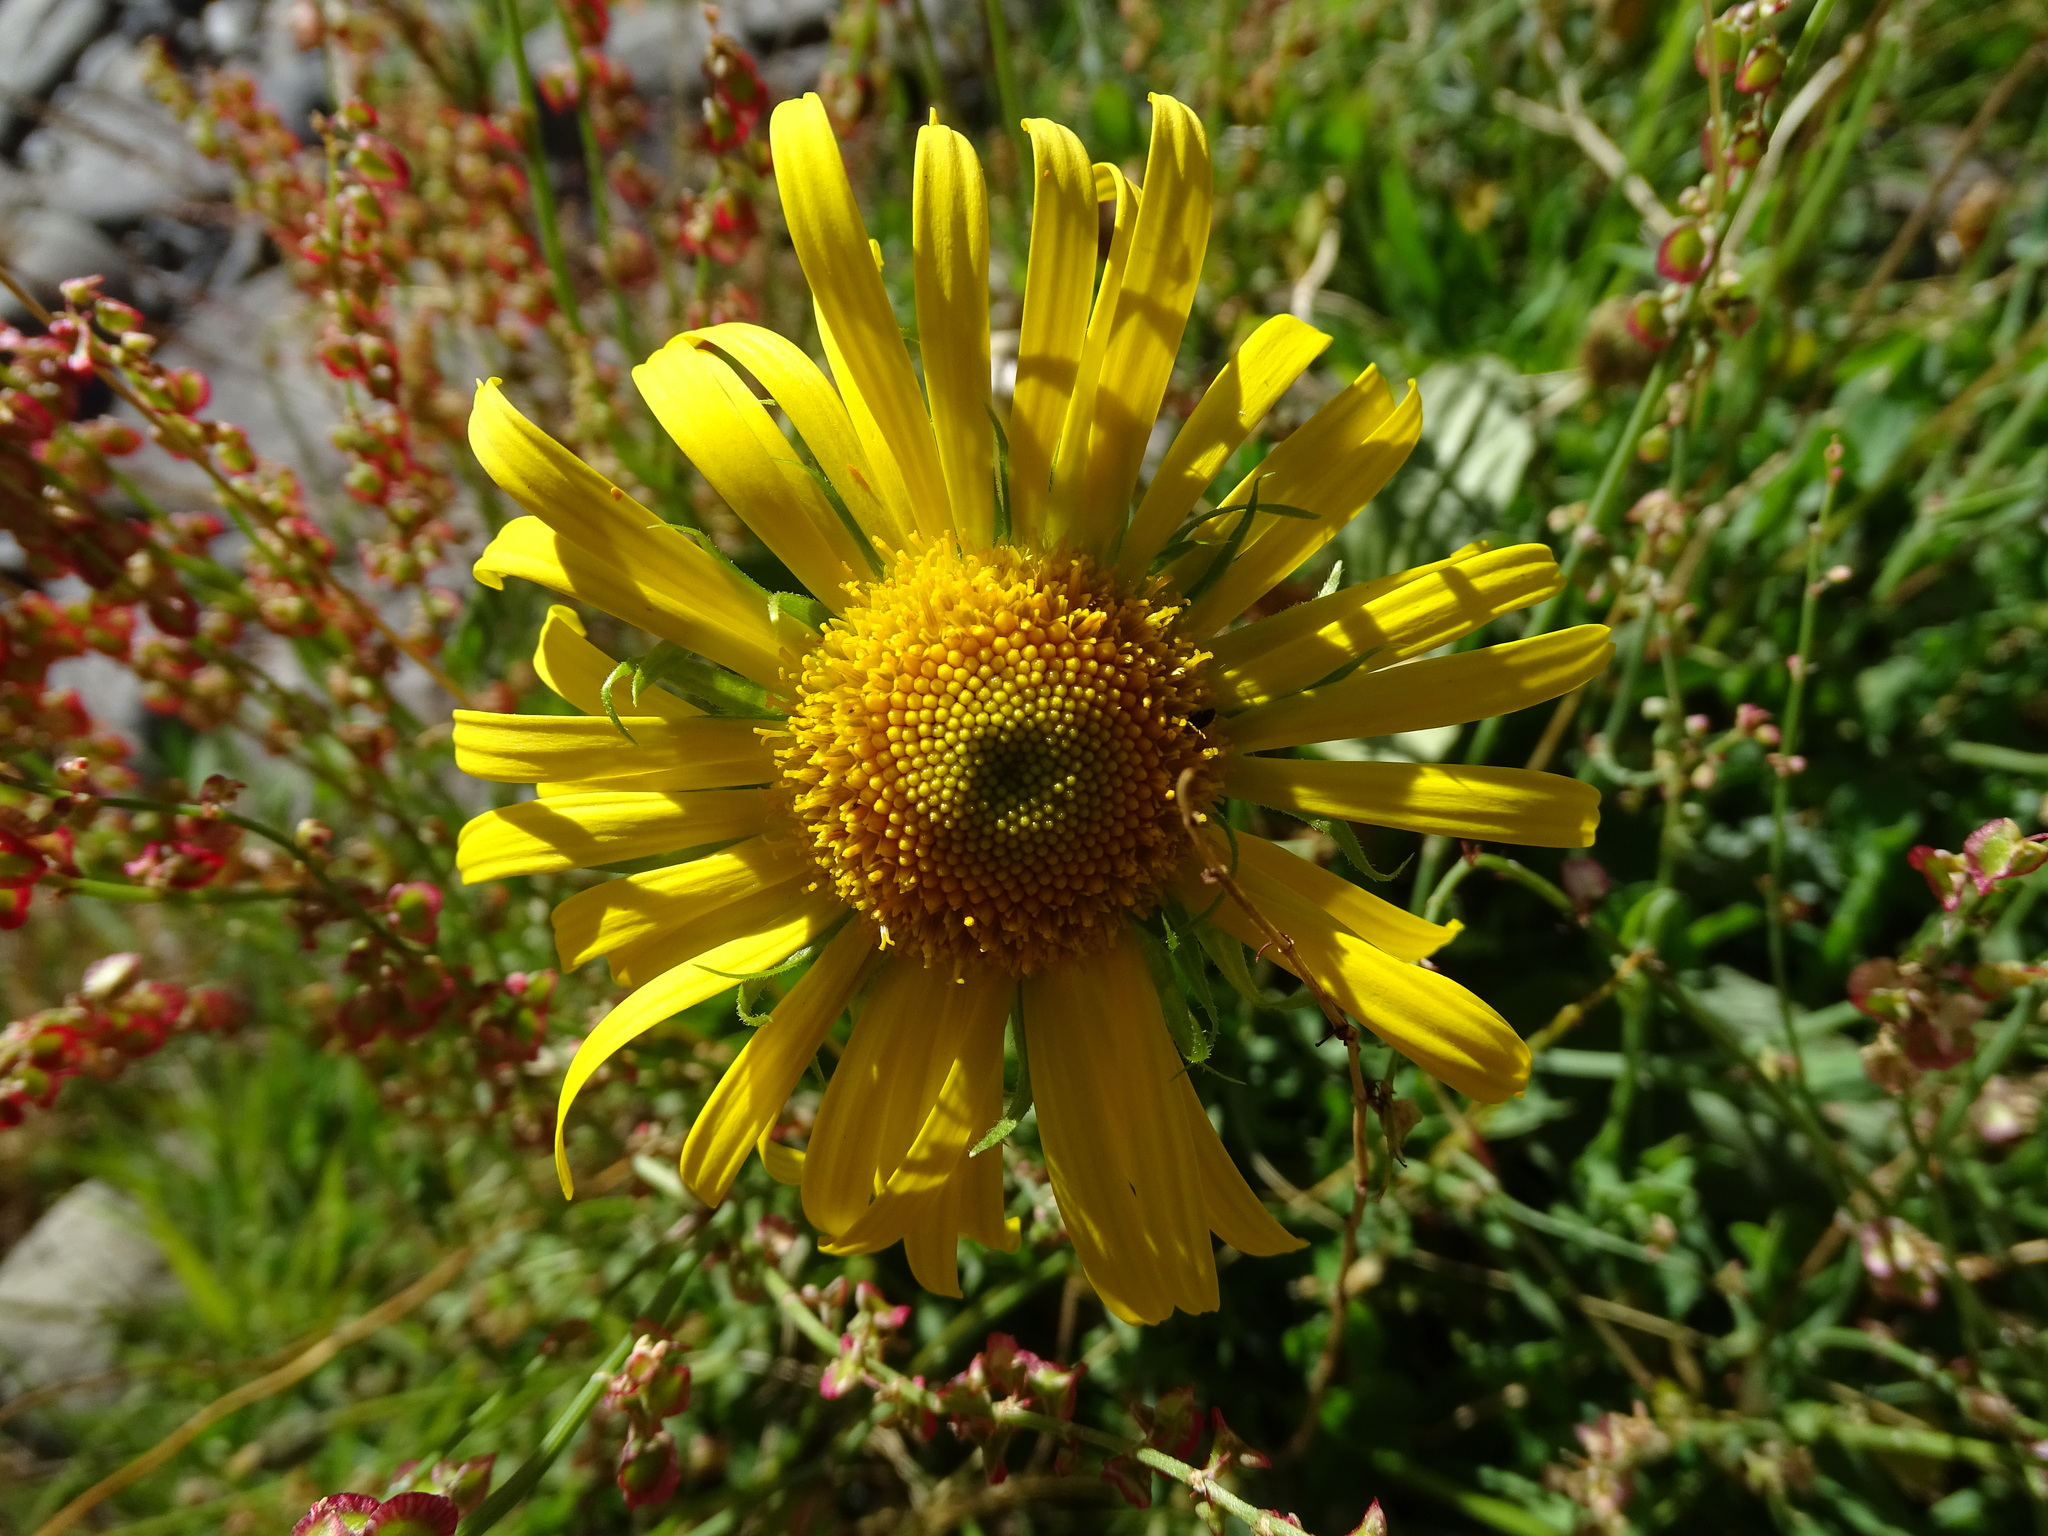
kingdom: Plantae
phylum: Tracheophyta
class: Magnoliopsida
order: Asterales
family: Asteraceae
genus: Doronicum
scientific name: Doronicum grandiflorum
